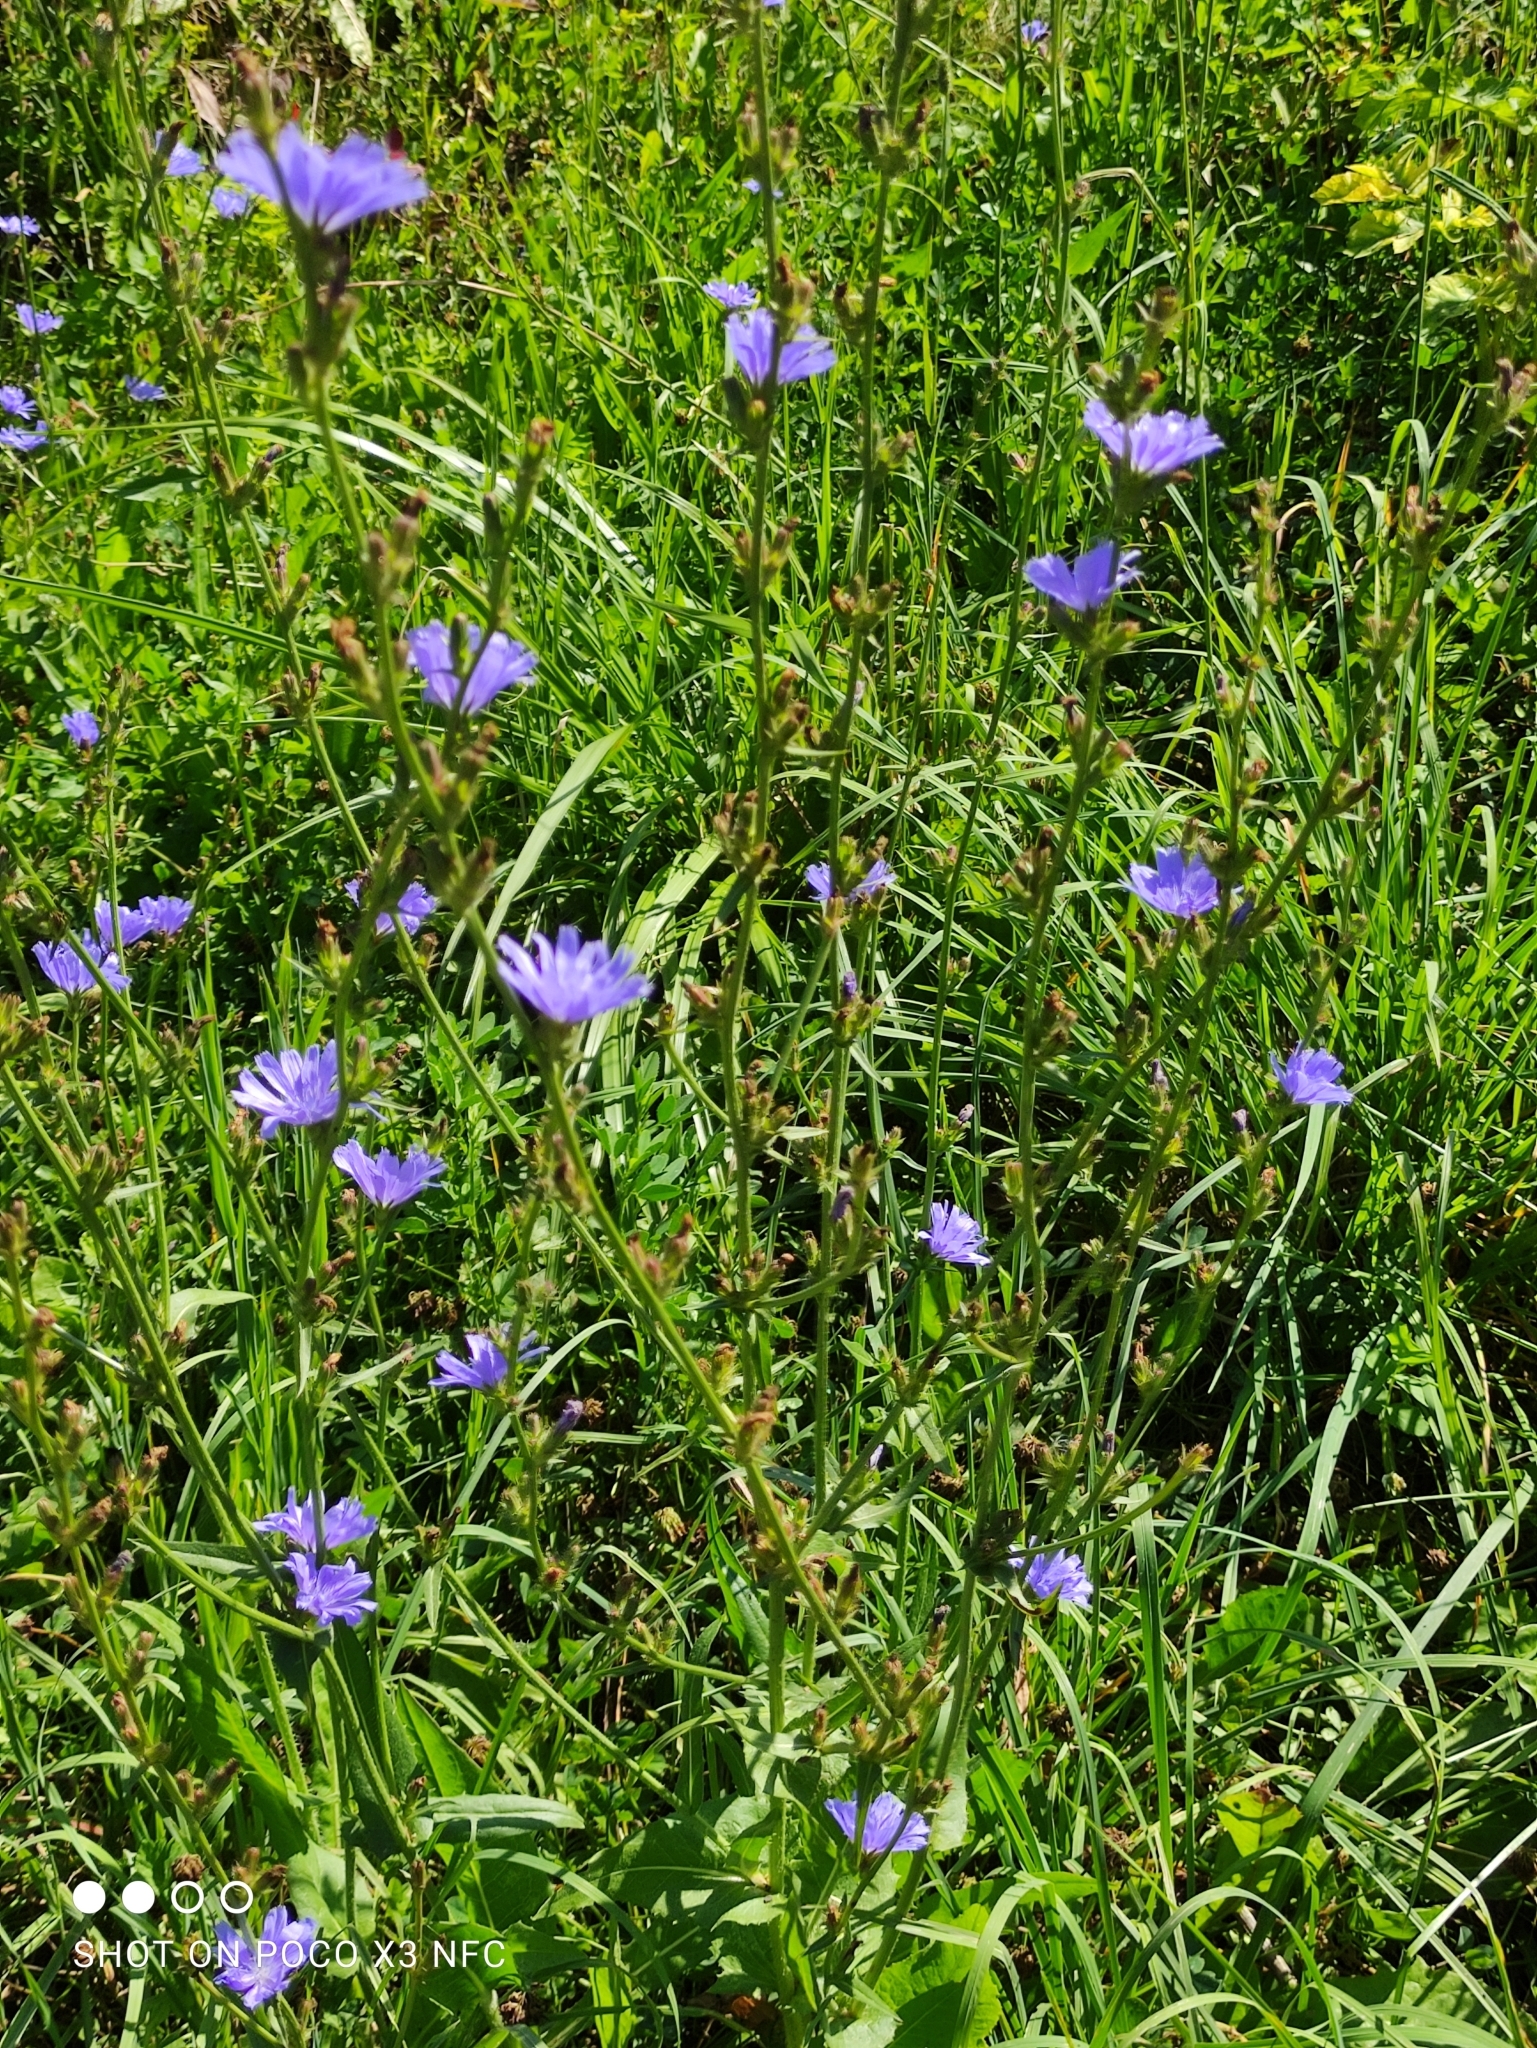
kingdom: Plantae
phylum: Tracheophyta
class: Magnoliopsida
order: Asterales
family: Asteraceae
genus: Cichorium
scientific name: Cichorium intybus
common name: Chicory
